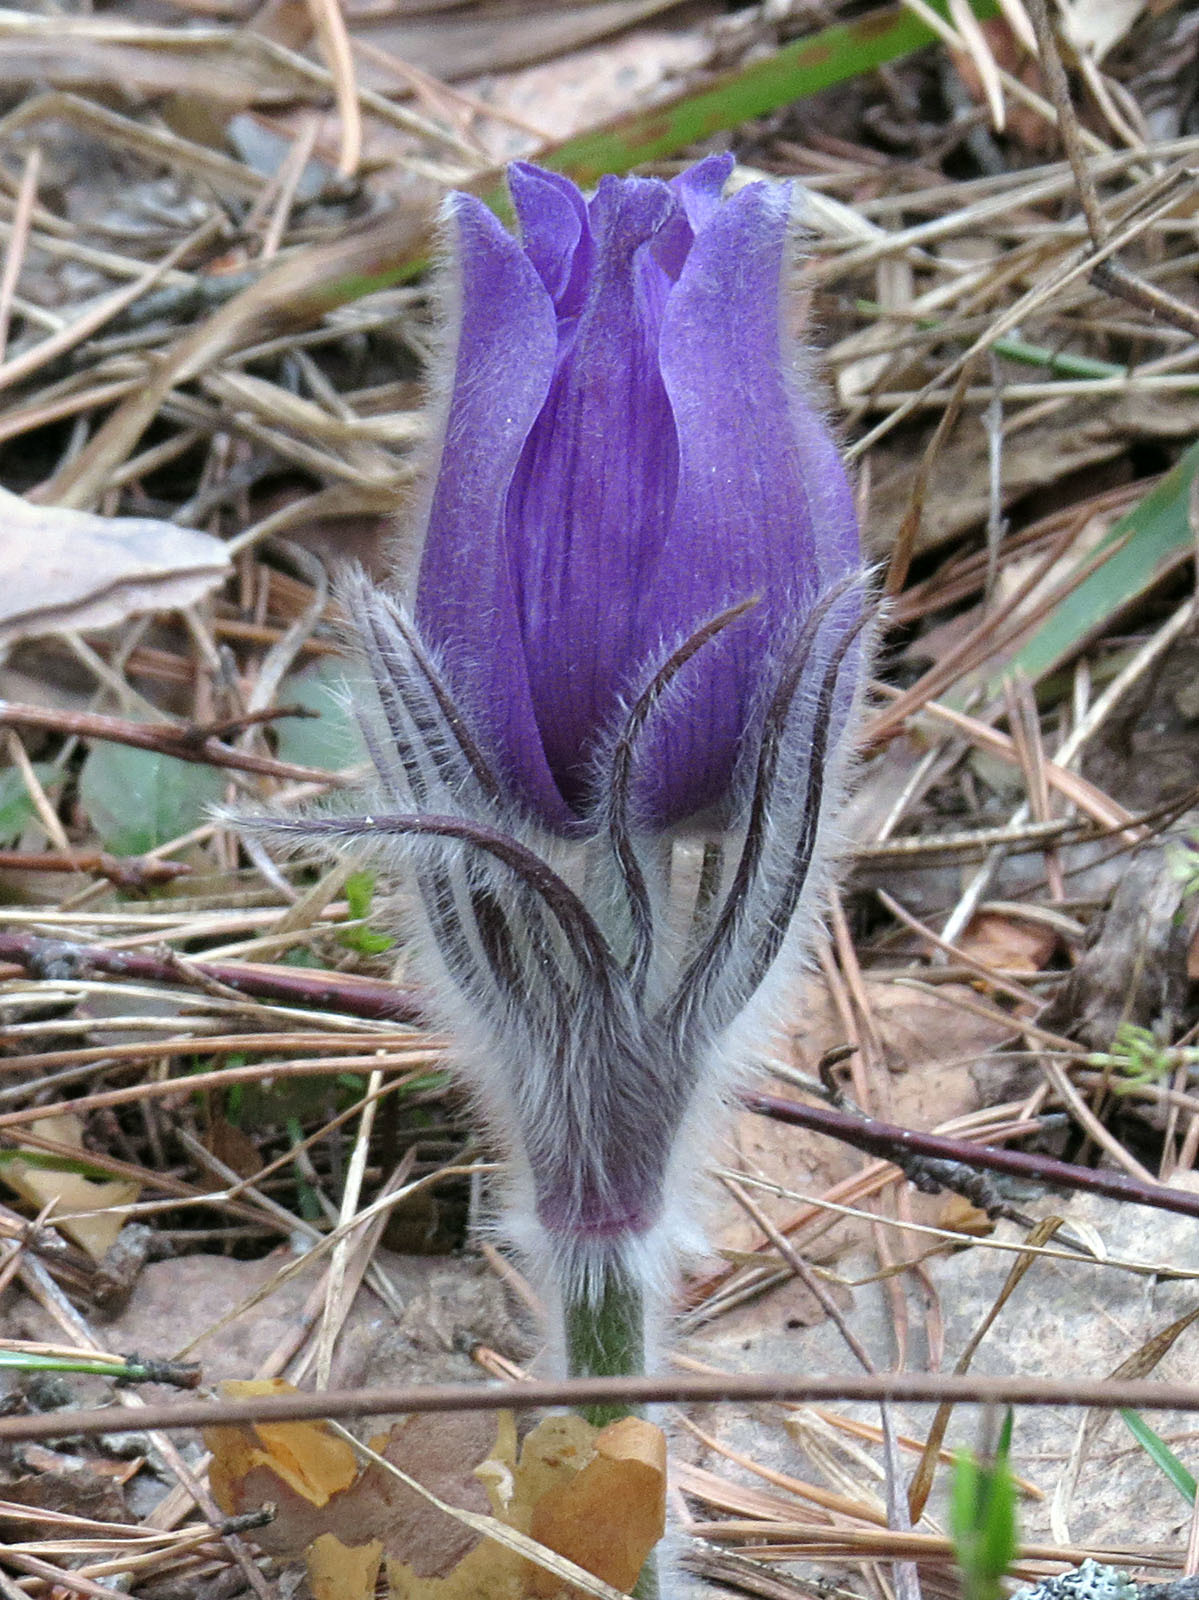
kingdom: Plantae
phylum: Tracheophyta
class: Magnoliopsida
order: Ranunculales
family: Ranunculaceae
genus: Pulsatilla
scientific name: Pulsatilla patens
